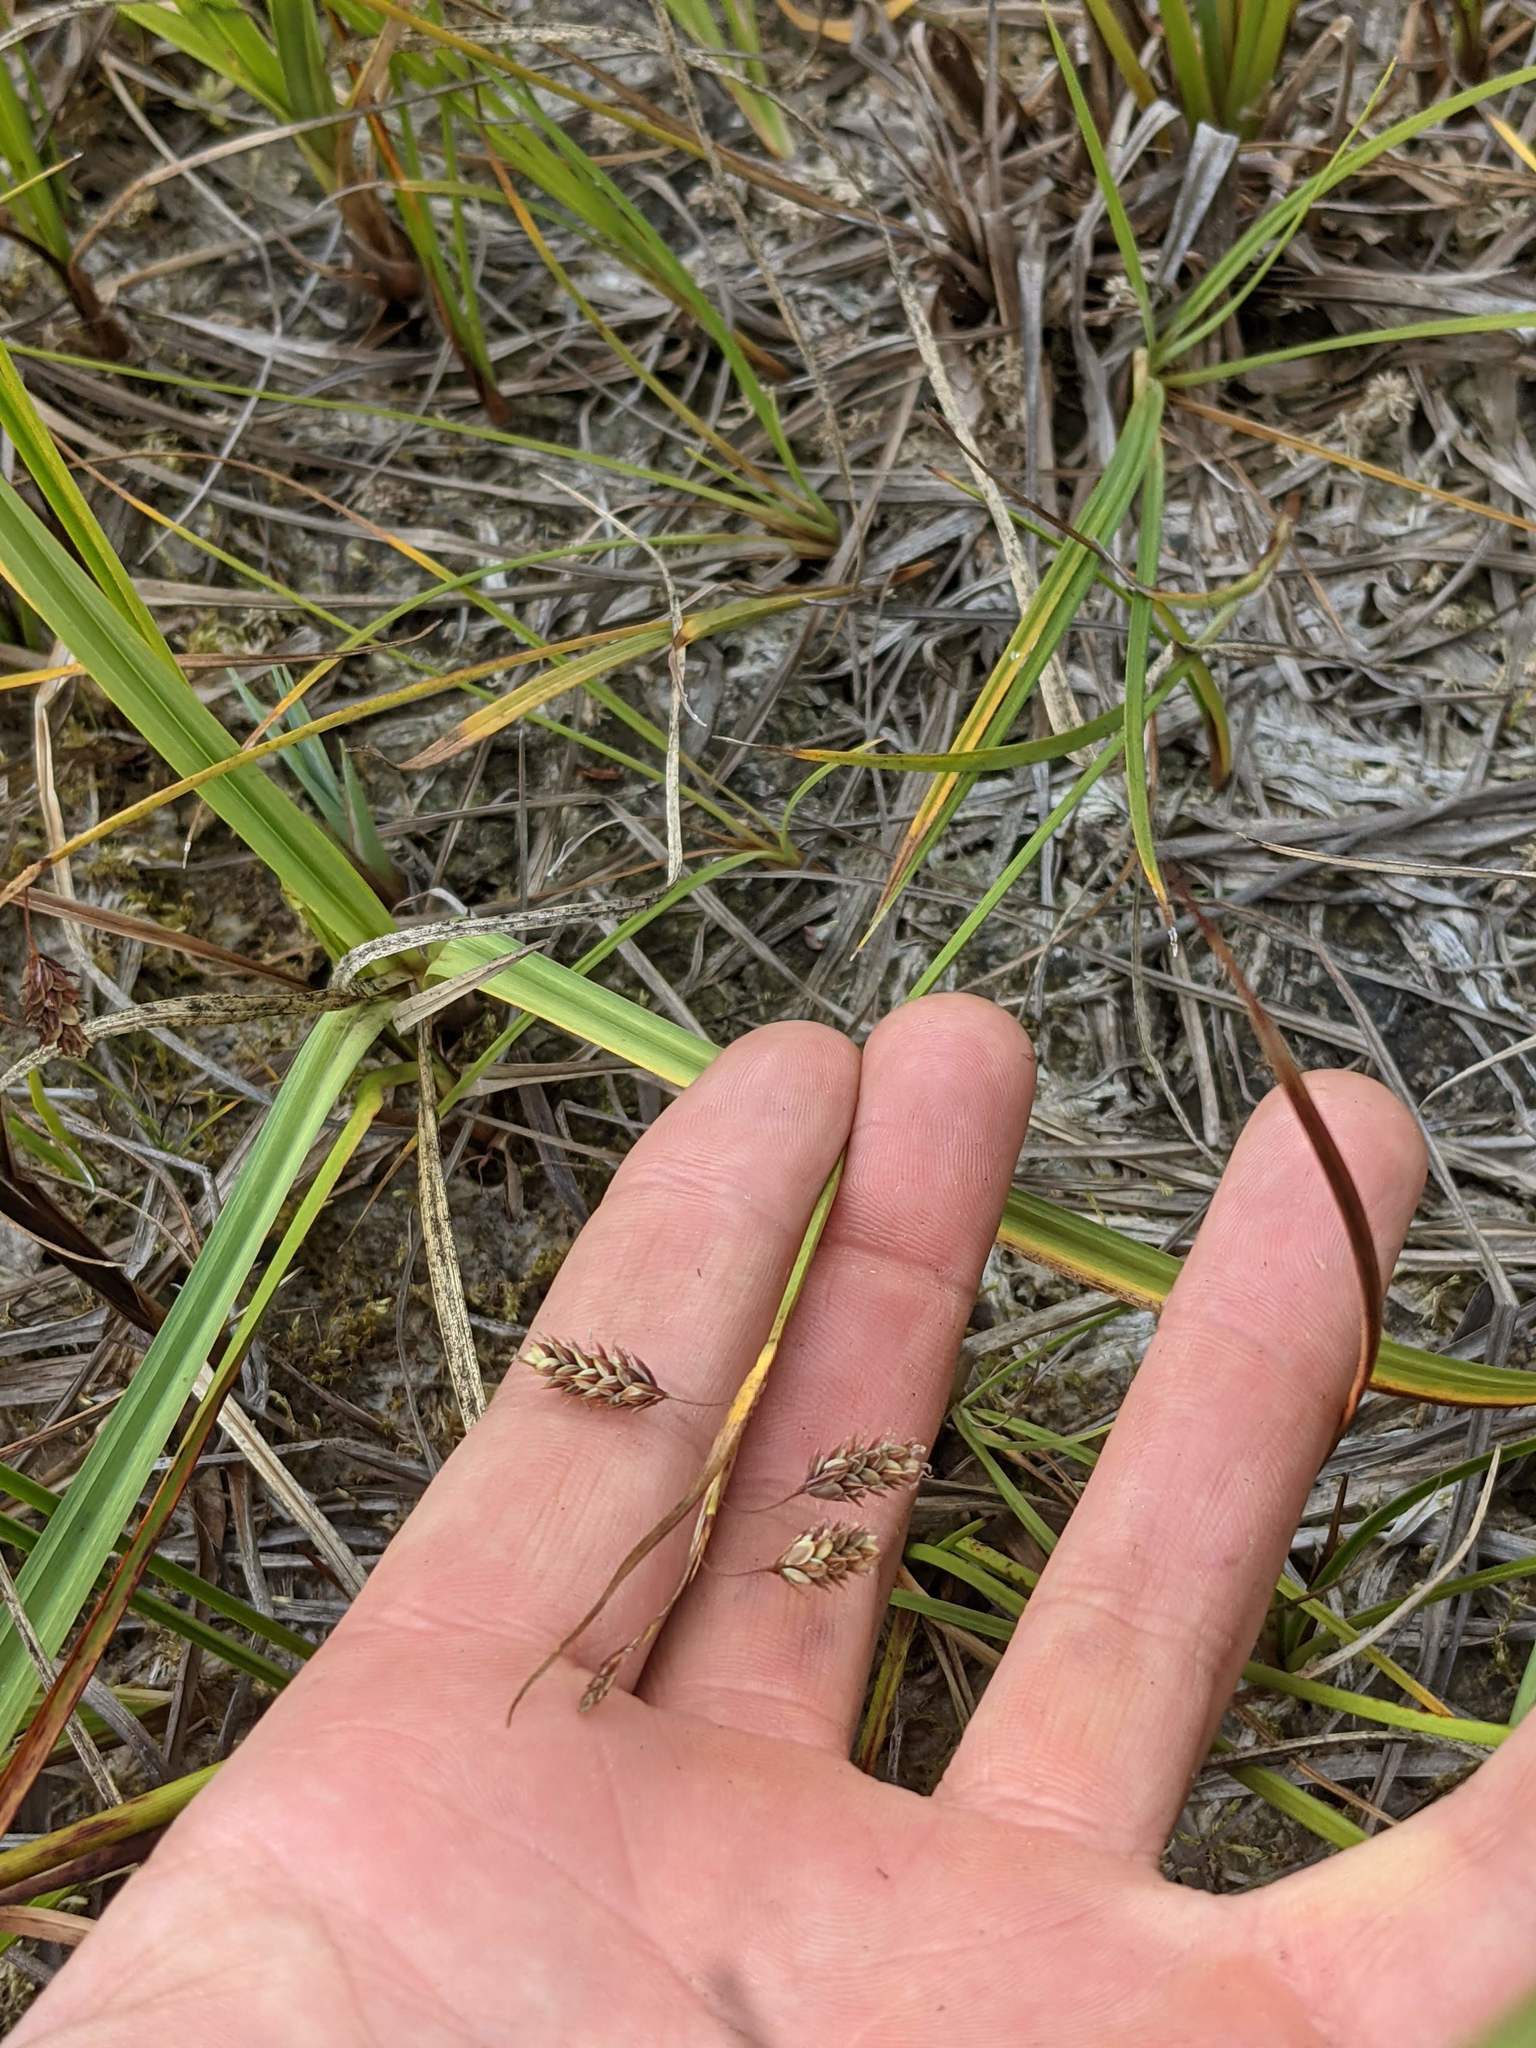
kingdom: Plantae
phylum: Tracheophyta
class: Liliopsida
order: Poales
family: Cyperaceae
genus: Carex
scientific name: Carex magellanica
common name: Bog sedge
